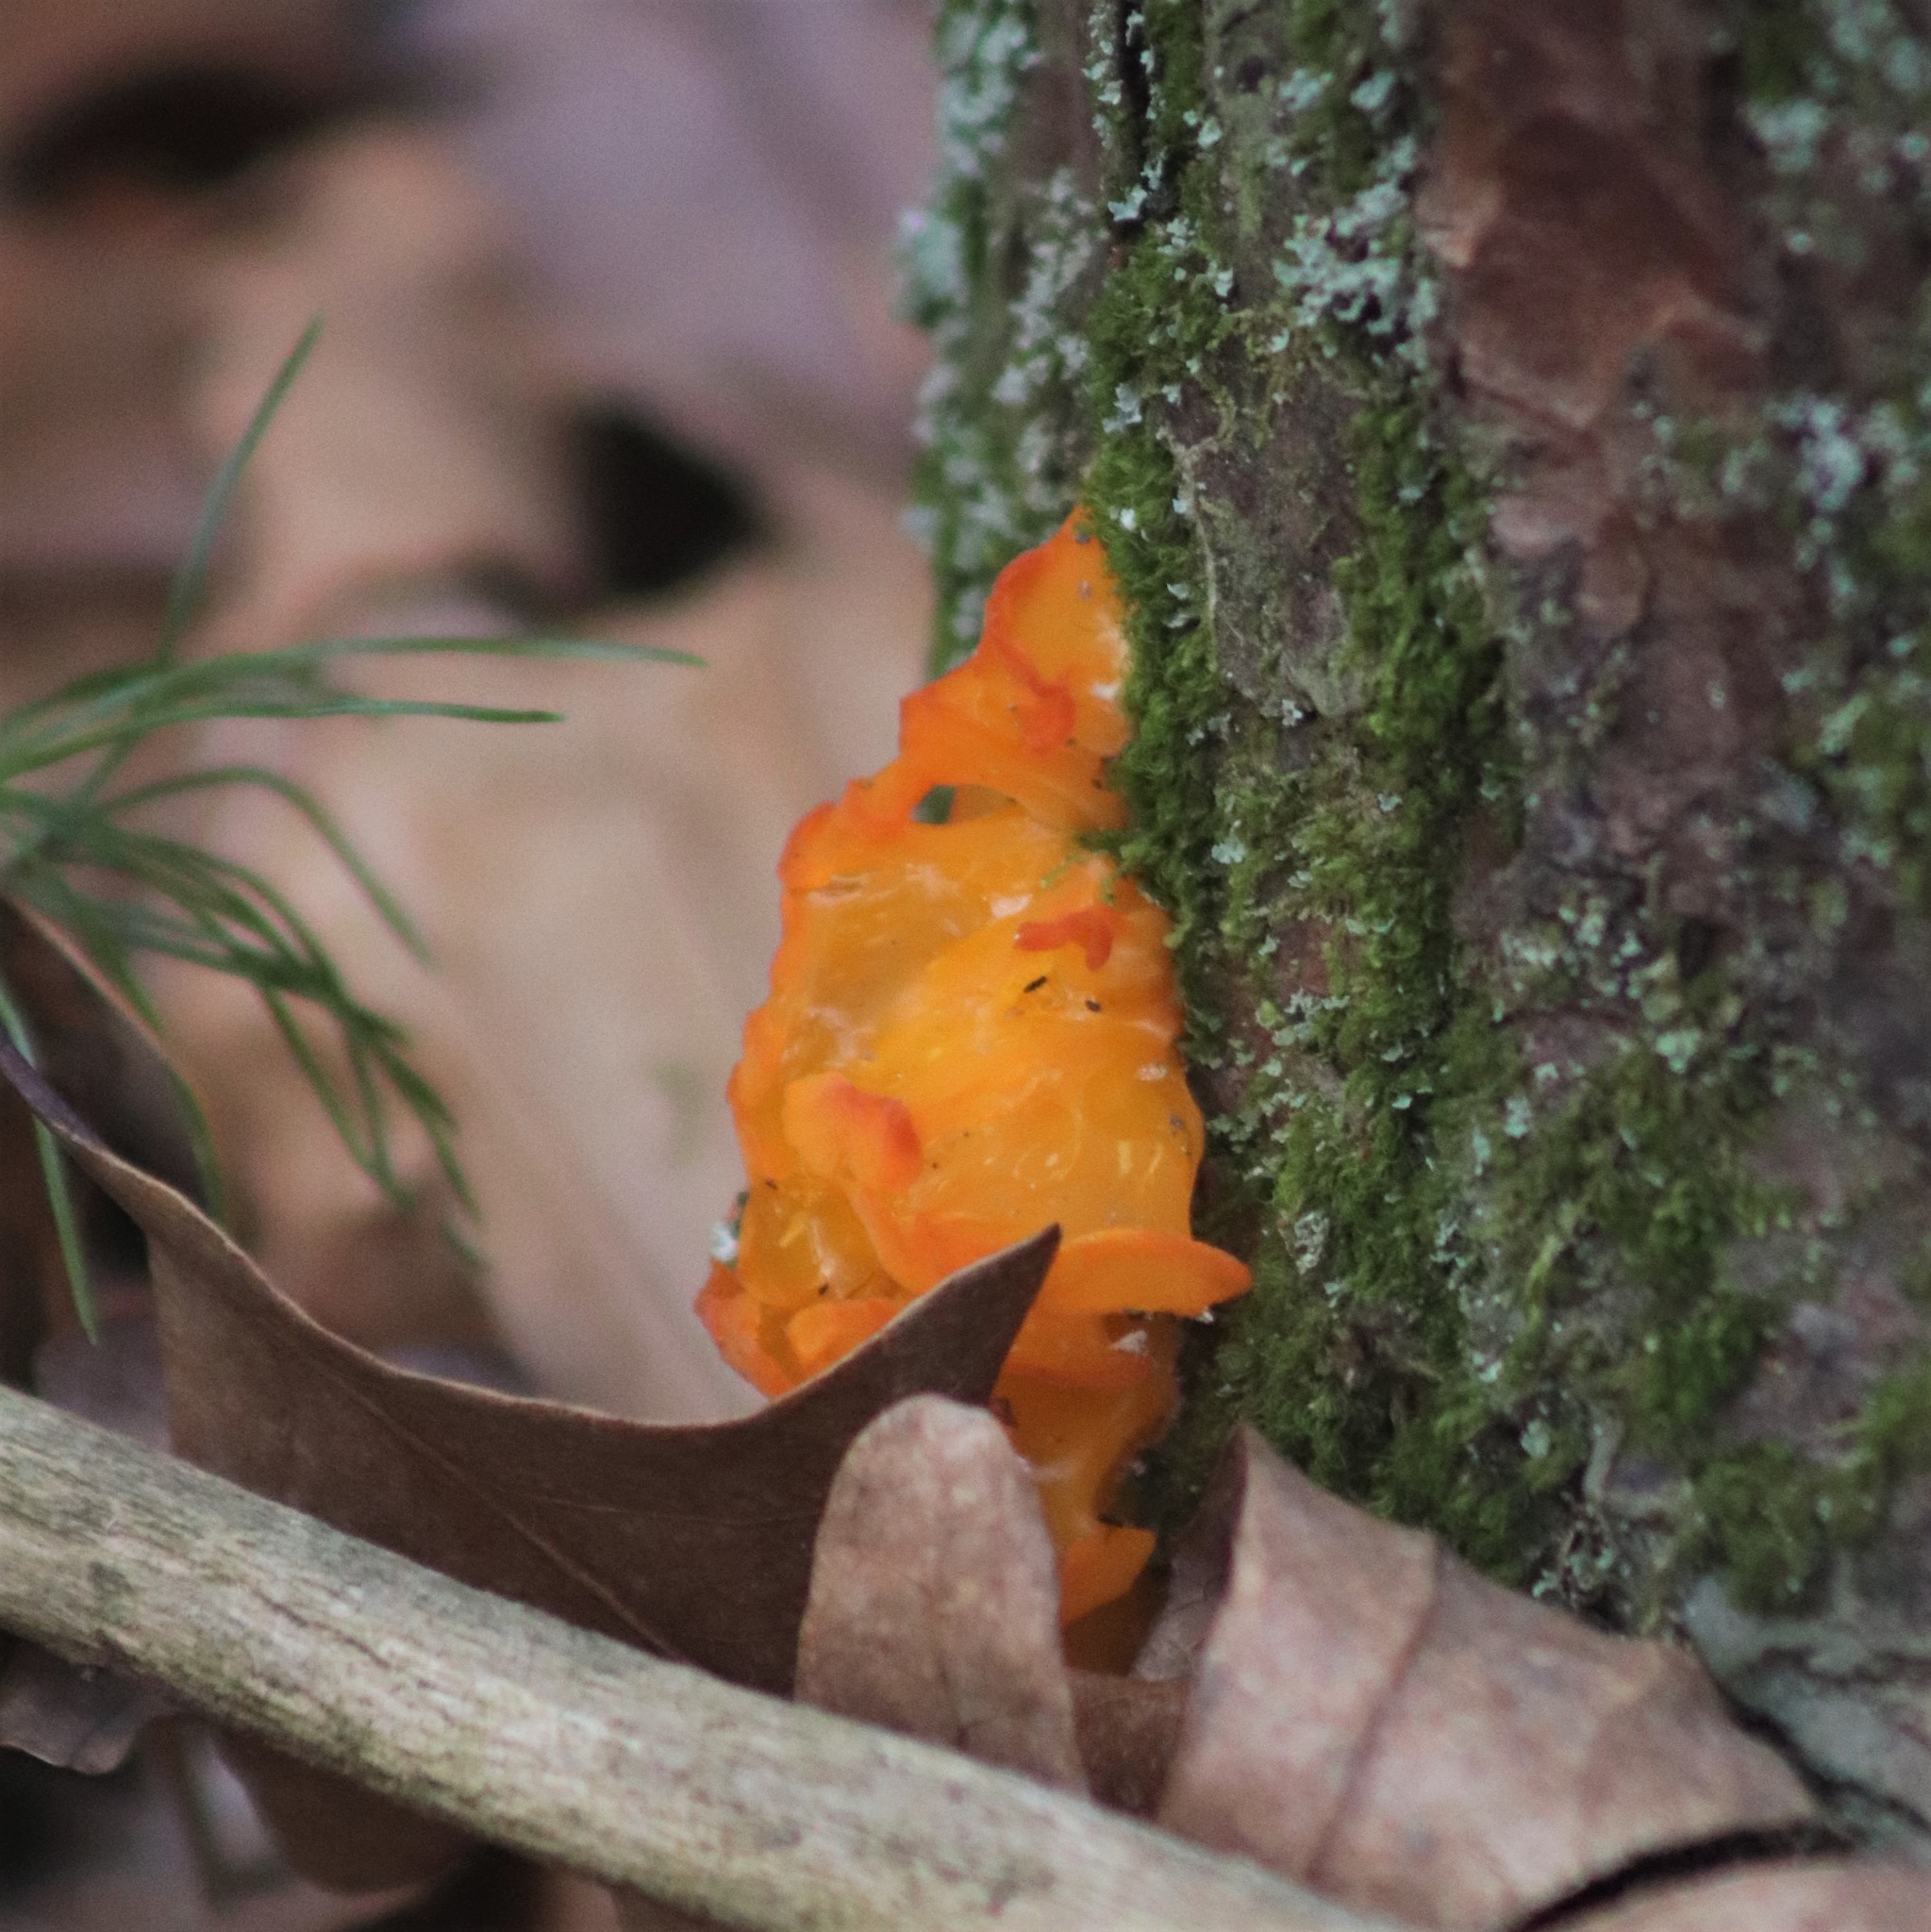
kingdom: Fungi
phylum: Basidiomycota
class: Tremellomycetes
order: Tremellales
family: Tremellaceae
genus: Tremella
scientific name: Tremella mesenterica
